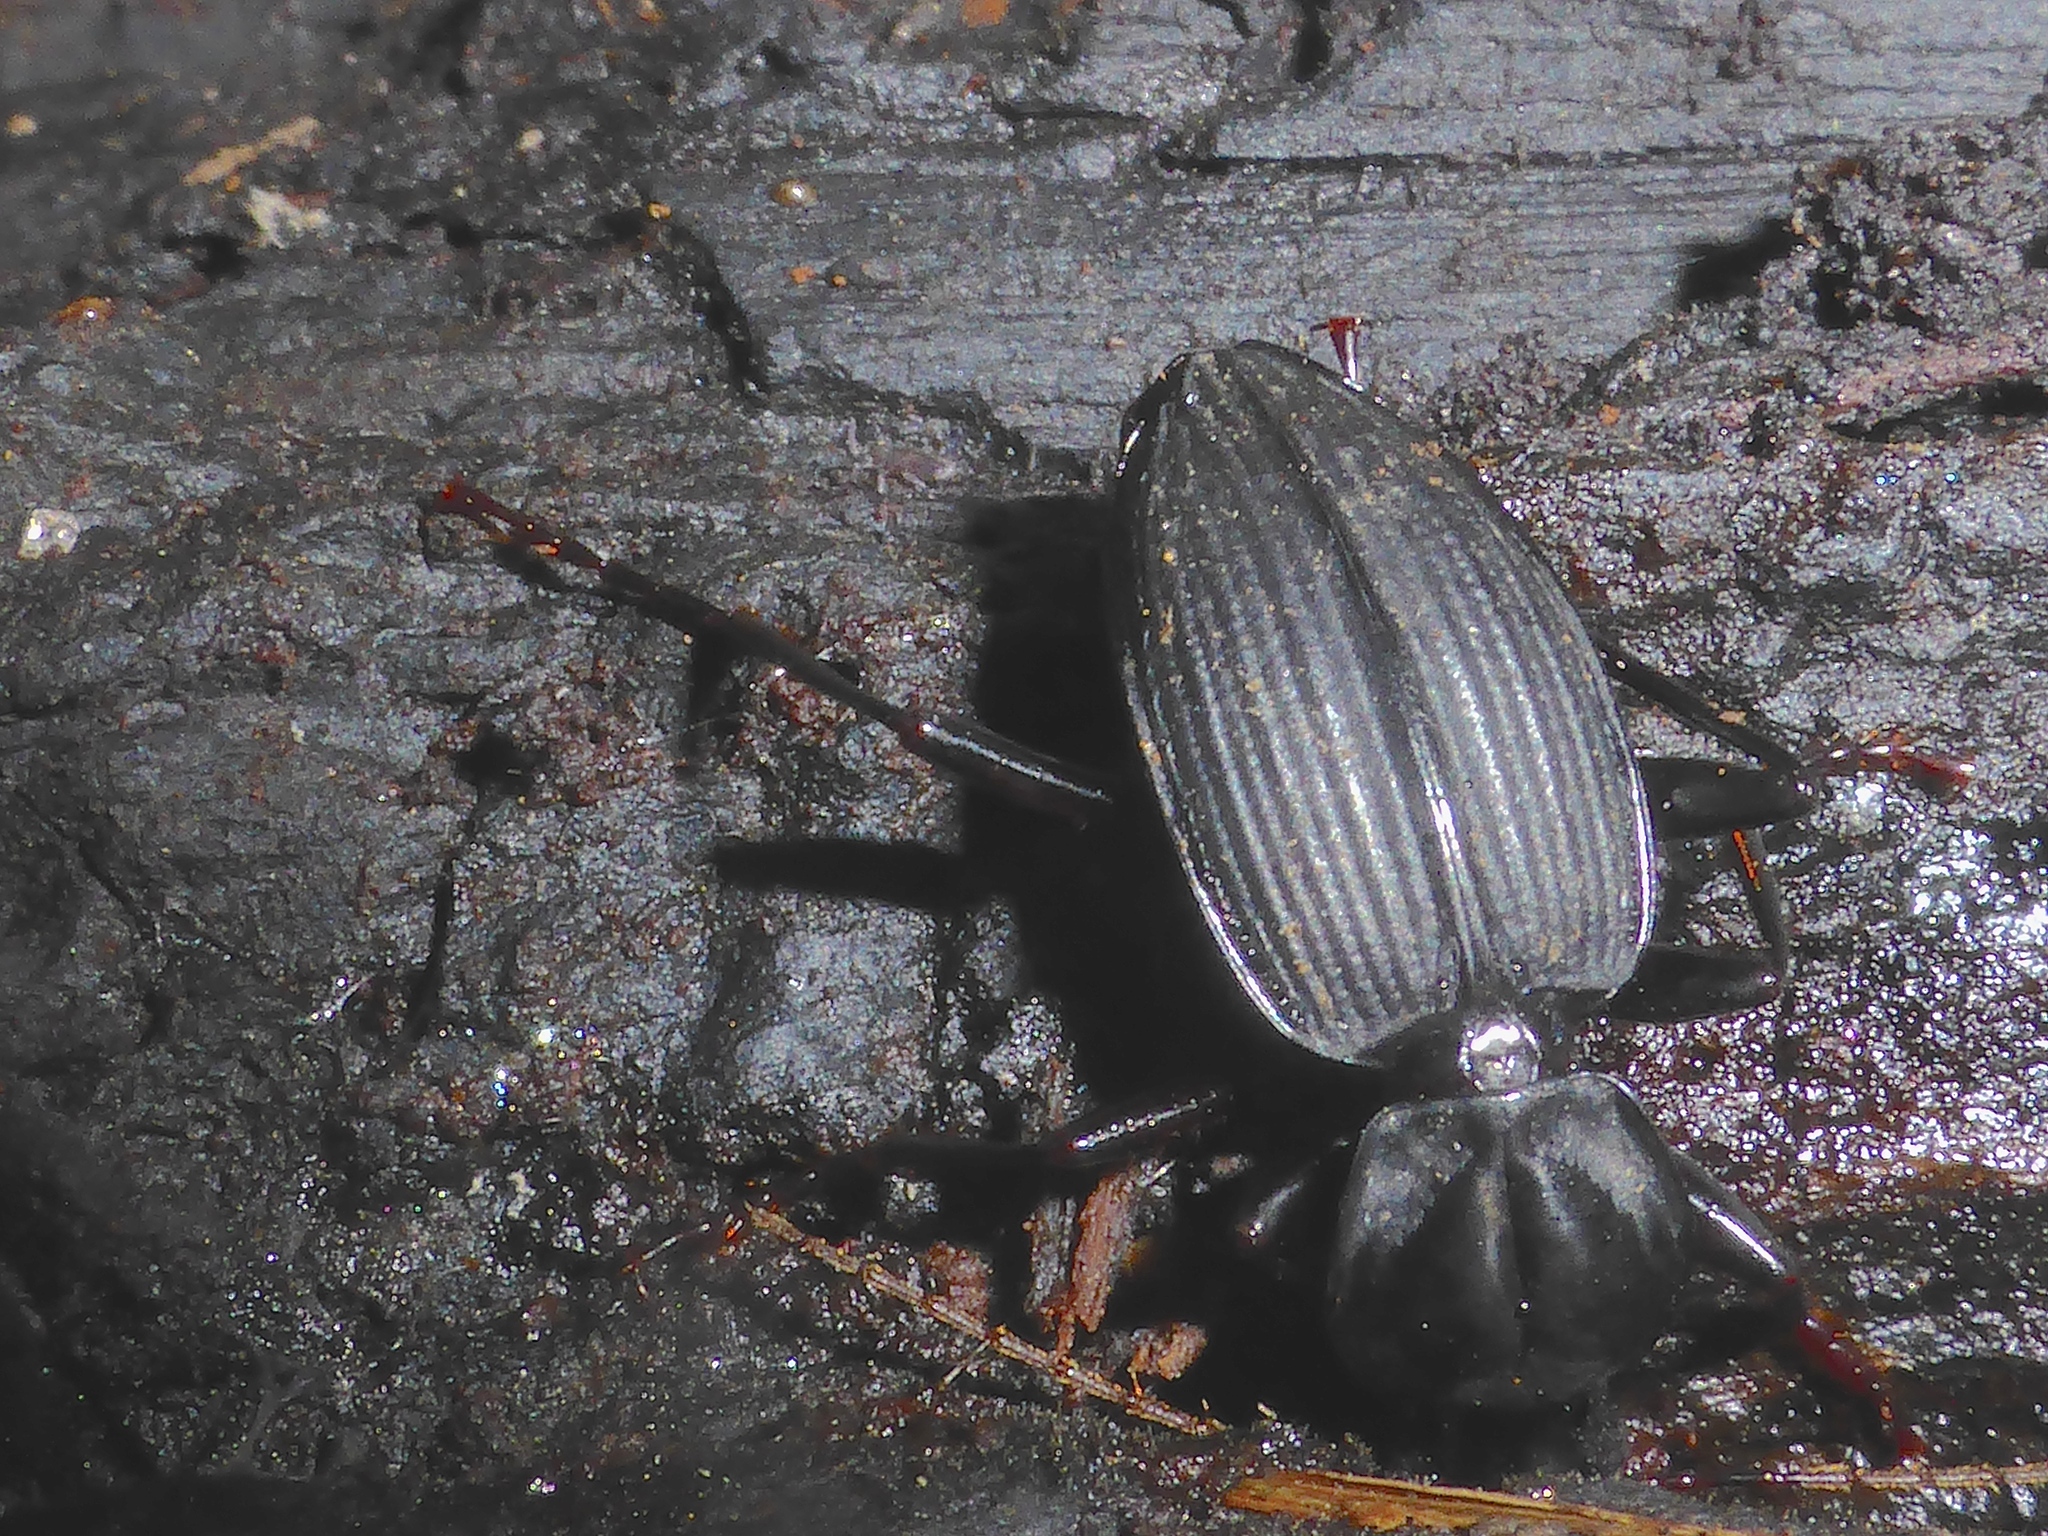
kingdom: Animalia
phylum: Arthropoda
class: Insecta
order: Coleoptera
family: Carabidae
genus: Kupeplatynus
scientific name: Kupeplatynus lucifugus
